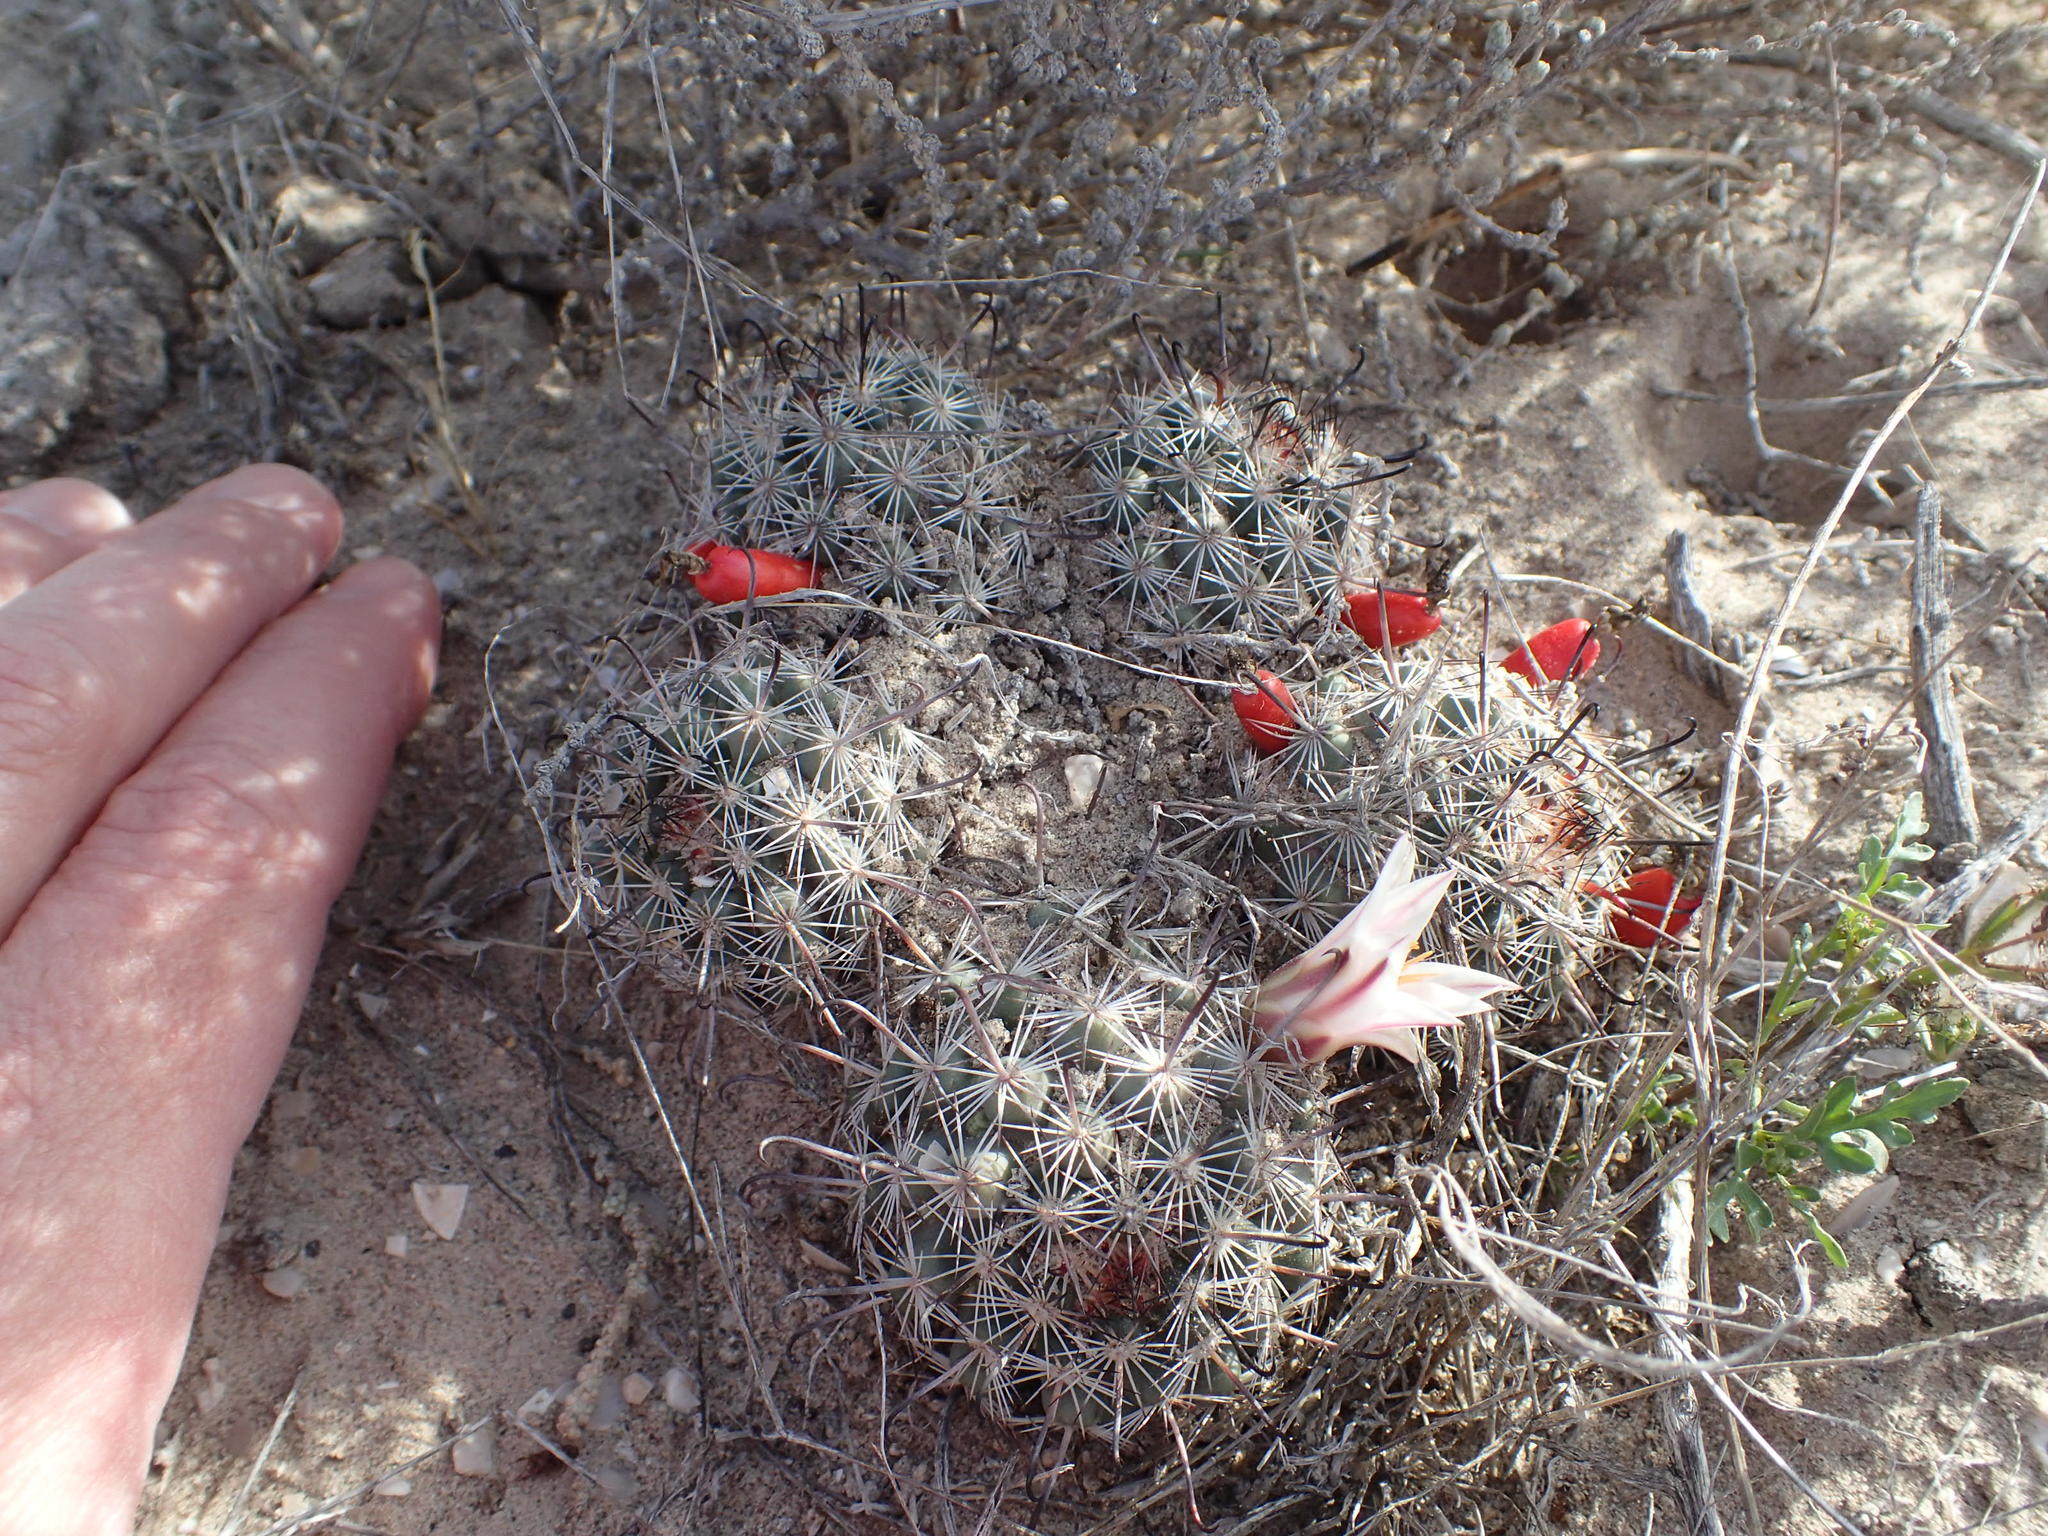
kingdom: Plantae
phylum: Tracheophyta
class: Magnoliopsida
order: Caryophyllales
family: Cactaceae
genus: Mammillaria
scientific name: Mammillaria hutchisoniana
